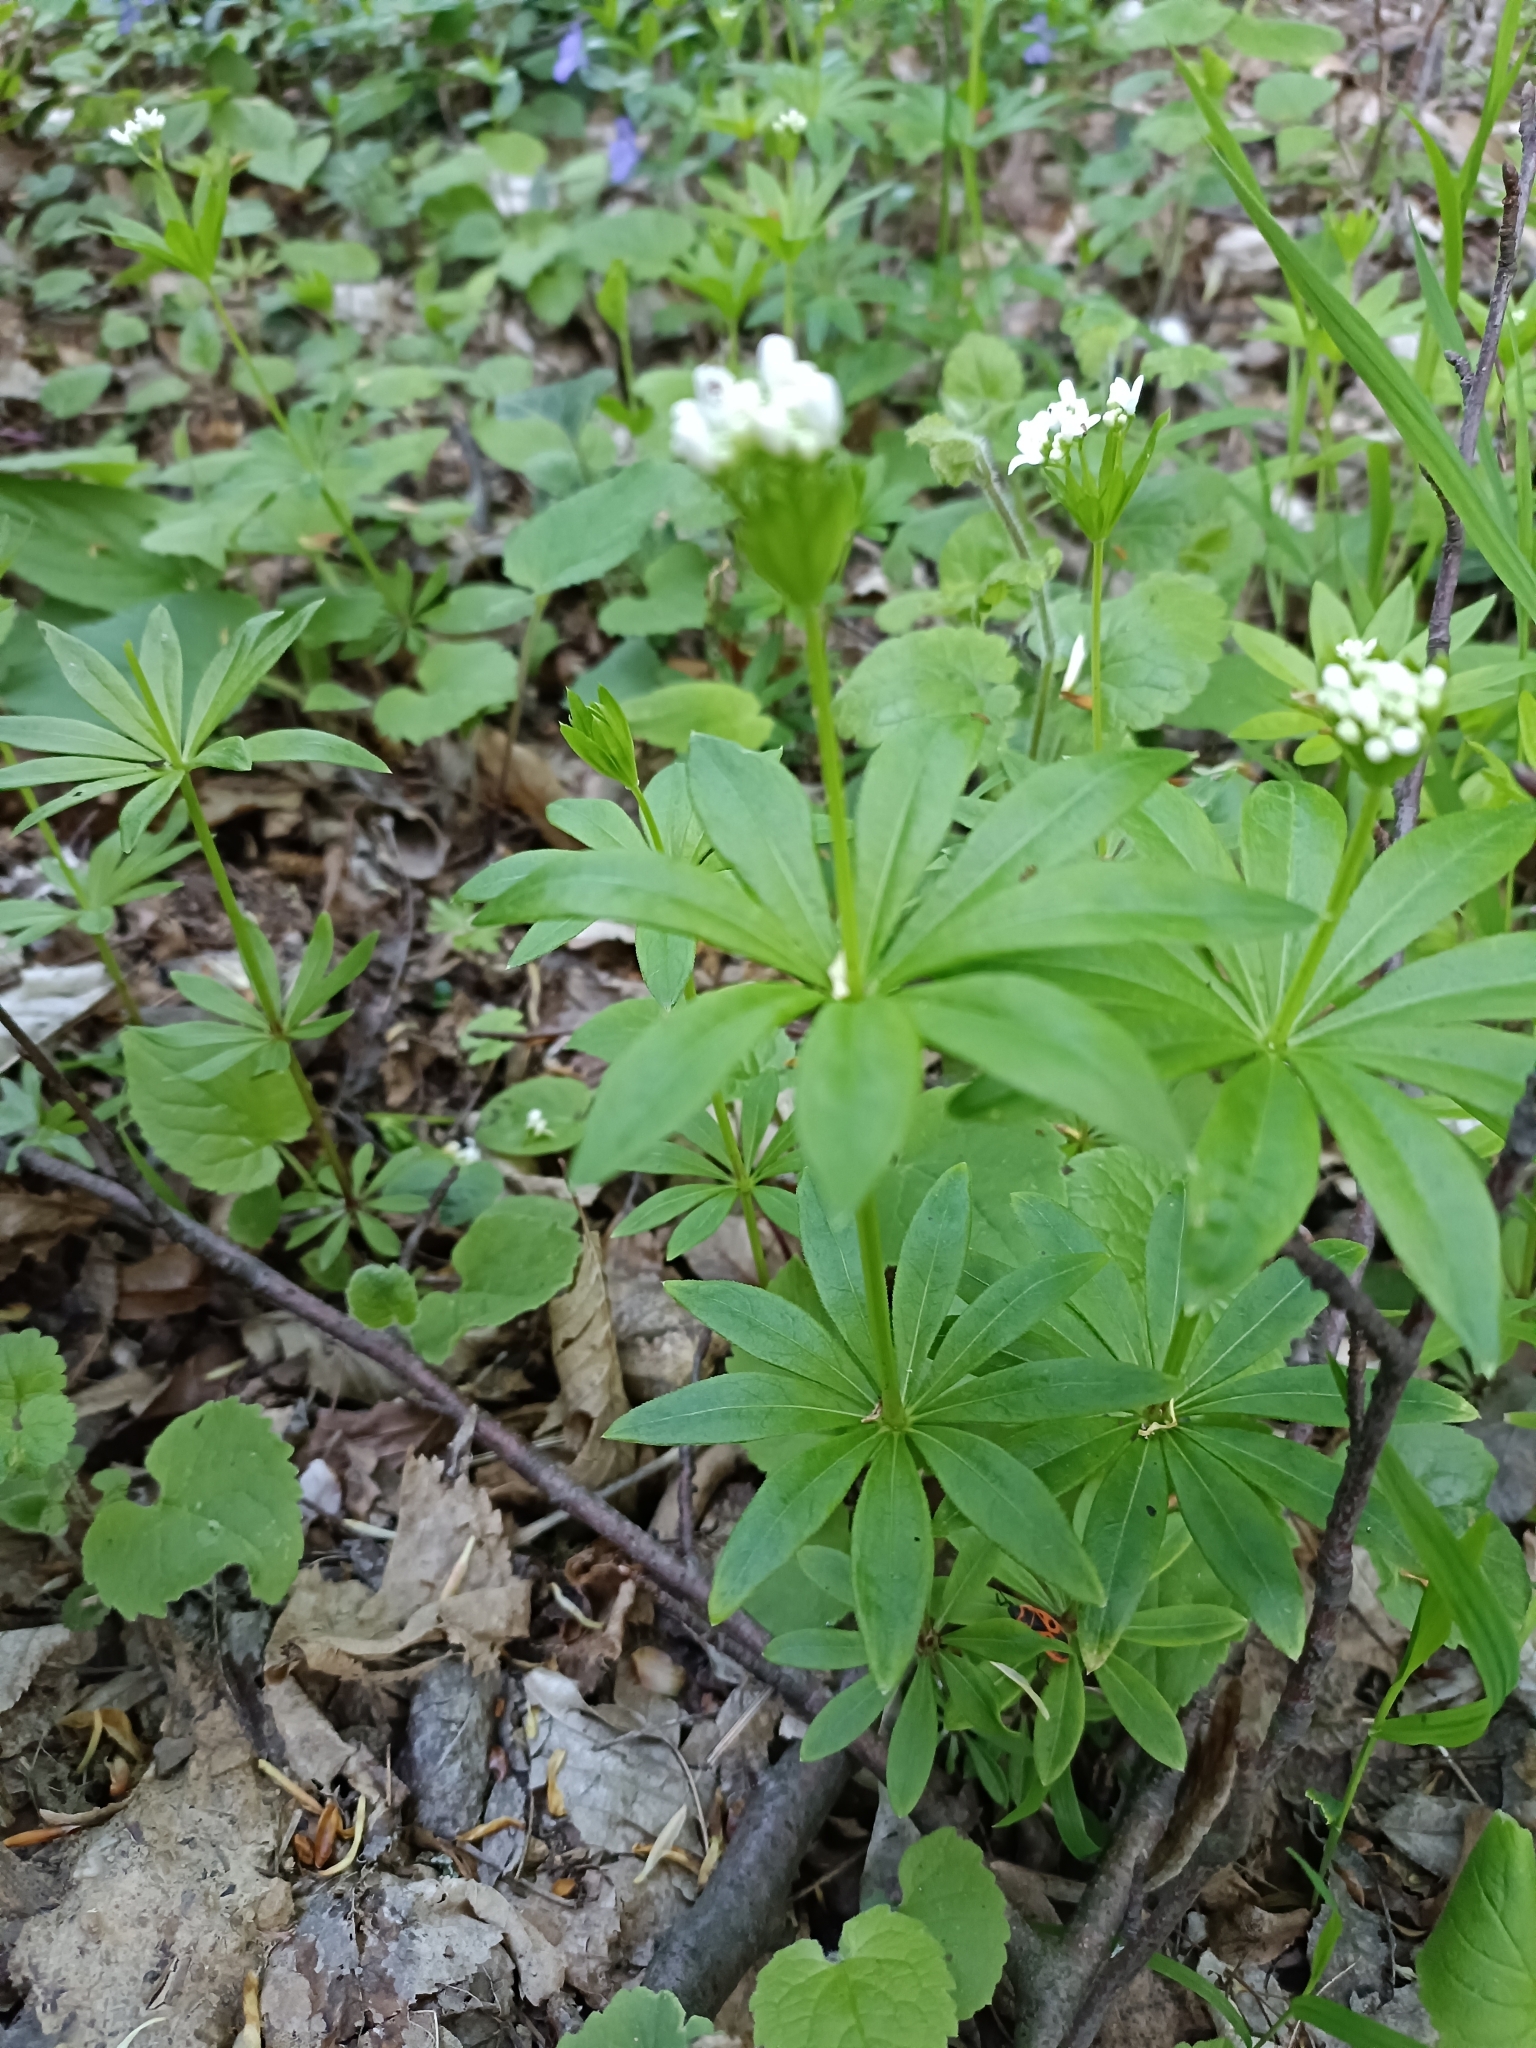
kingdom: Plantae
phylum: Tracheophyta
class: Magnoliopsida
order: Gentianales
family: Rubiaceae
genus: Galium
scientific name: Galium odoratum
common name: Sweet woodruff
